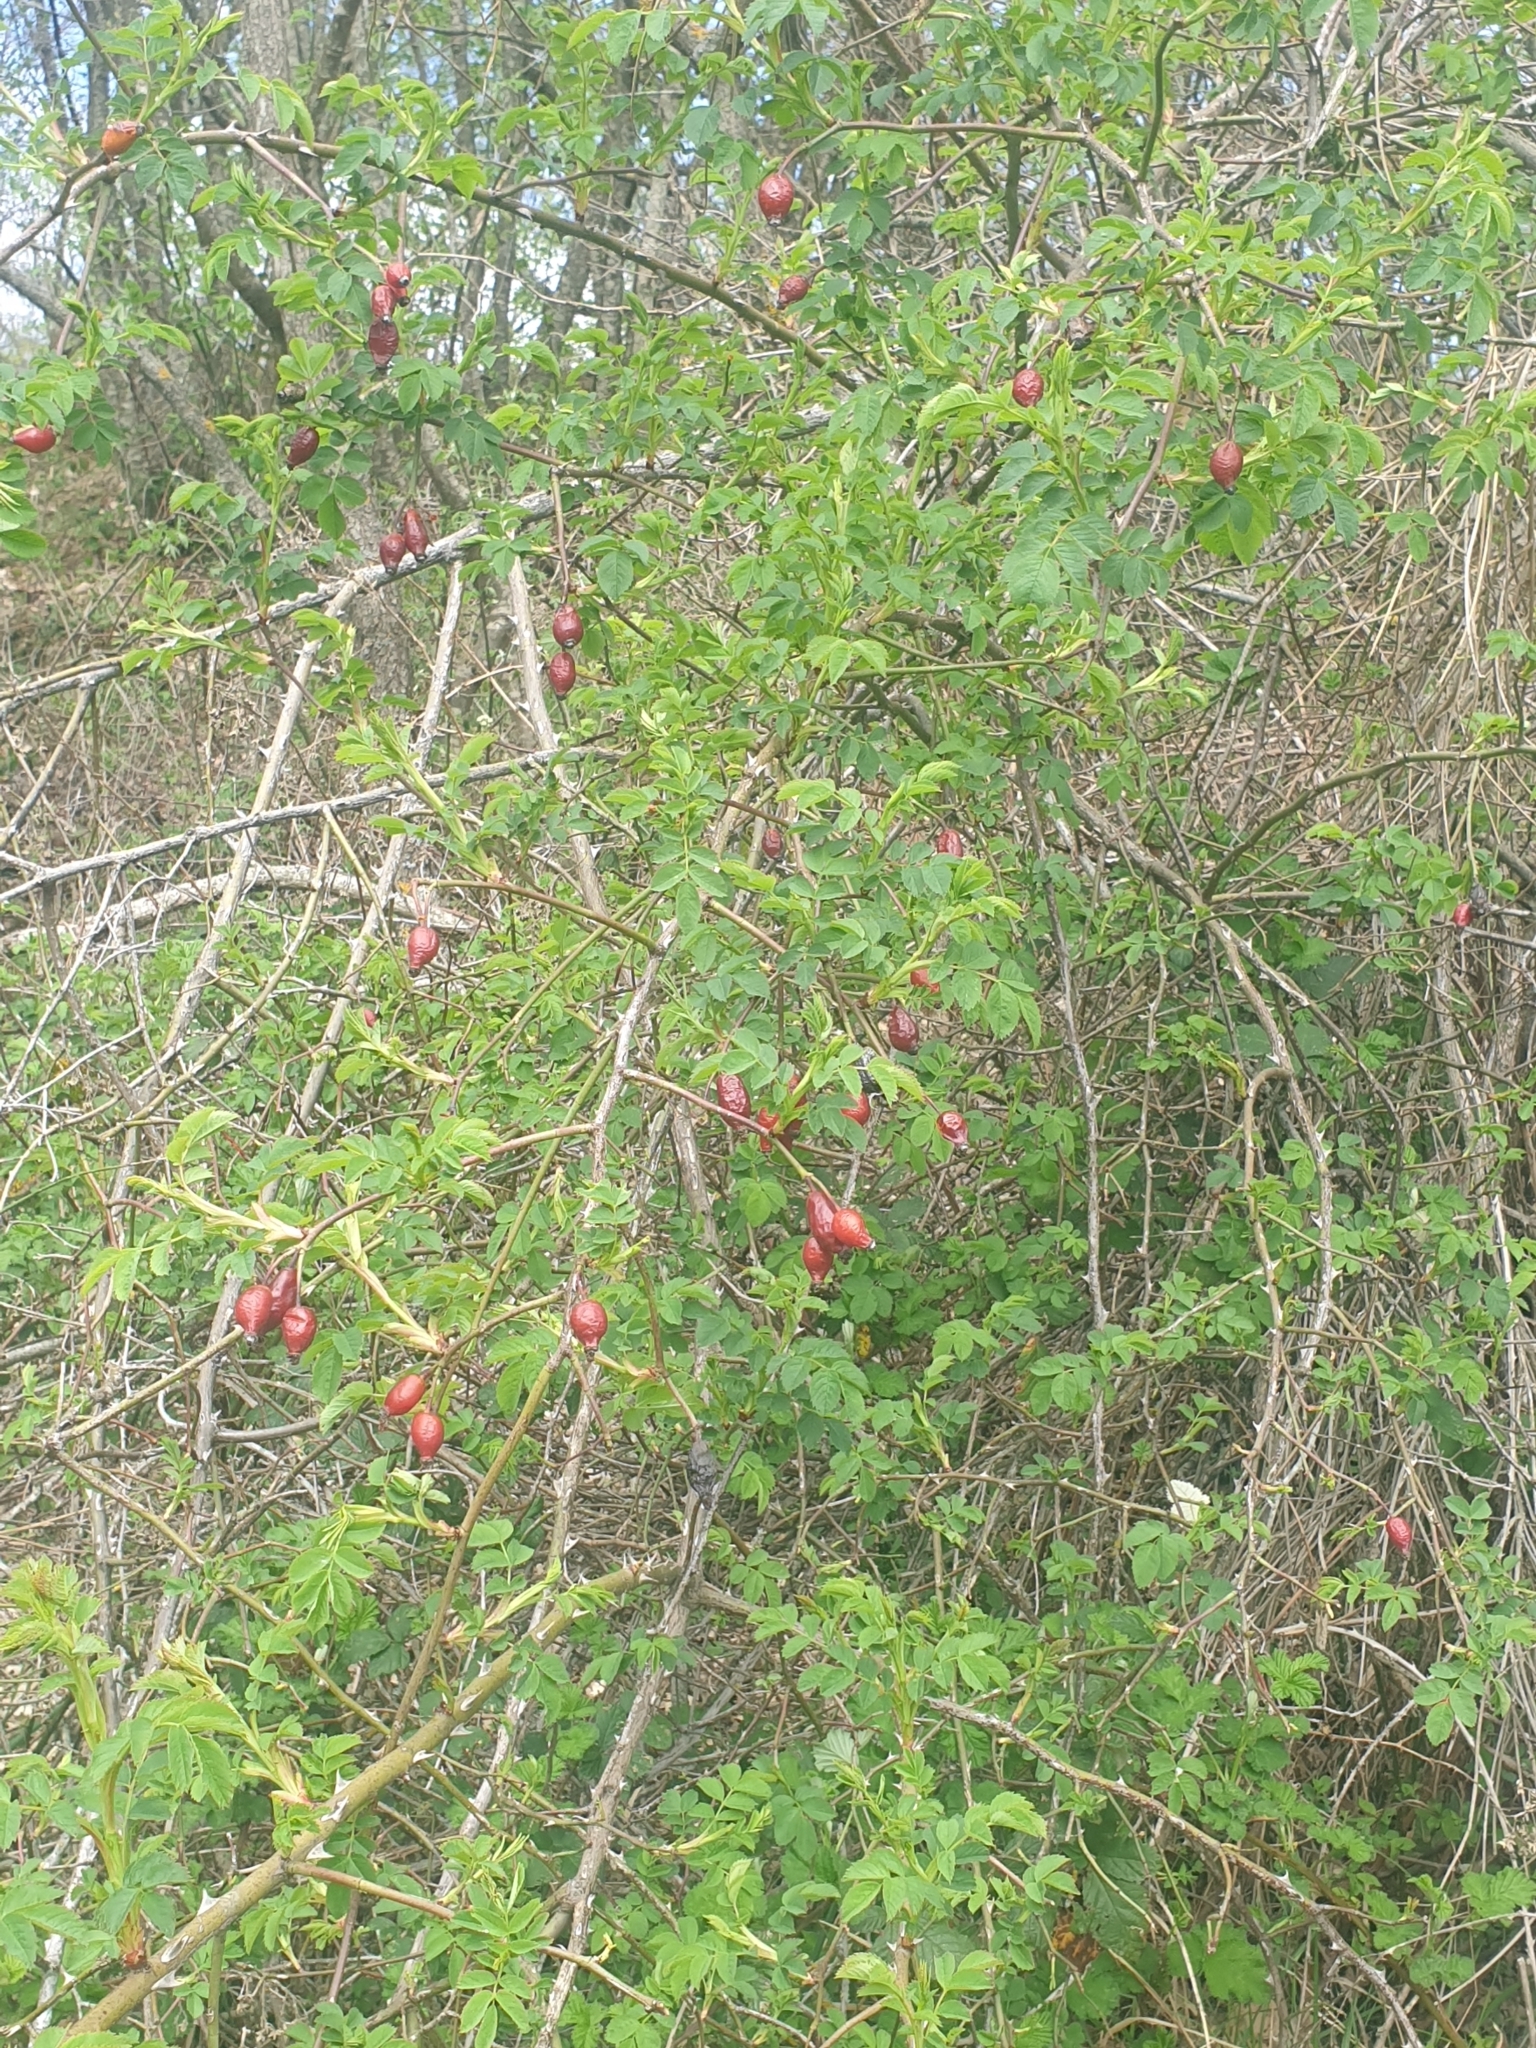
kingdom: Plantae
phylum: Tracheophyta
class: Magnoliopsida
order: Rosales
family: Rosaceae
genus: Rosa
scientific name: Rosa canina
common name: Dog rose
